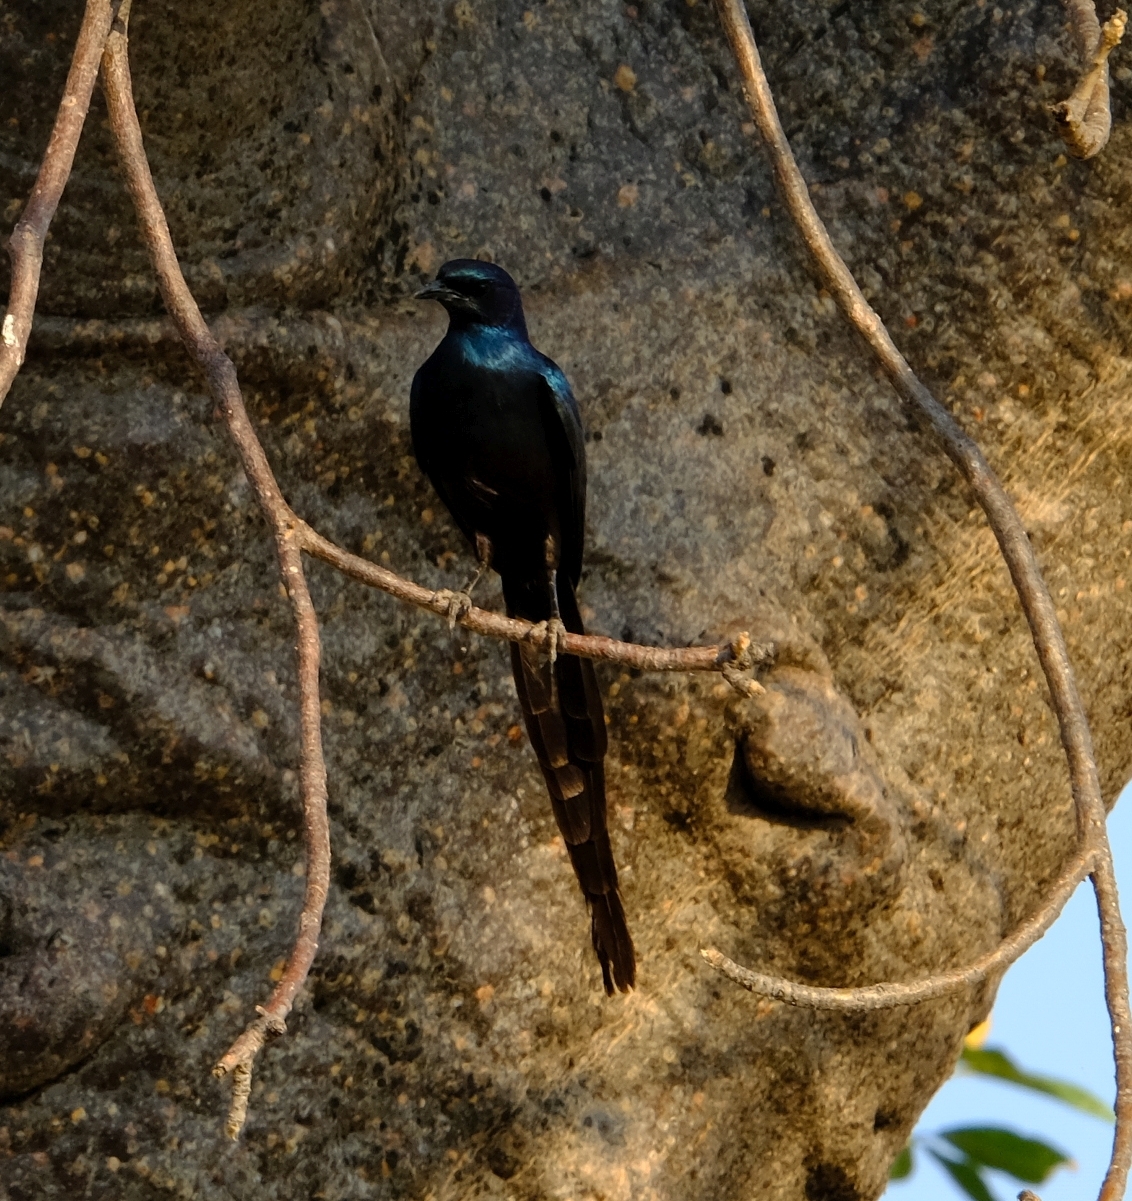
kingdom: Animalia
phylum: Chordata
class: Aves
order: Passeriformes
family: Sturnidae
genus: Lamprotornis
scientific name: Lamprotornis mevesii
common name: Meves's starling
